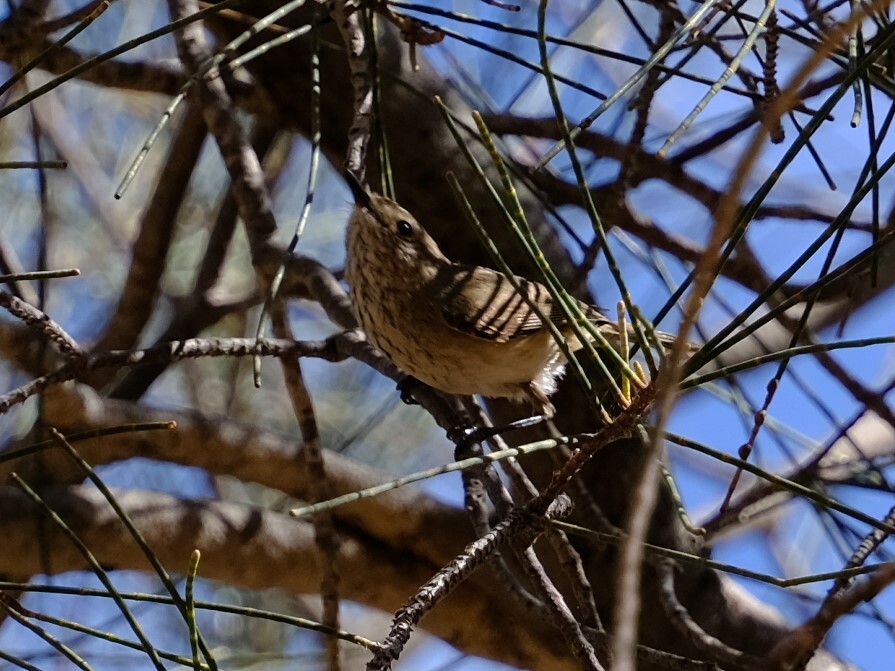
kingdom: Animalia
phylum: Chordata
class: Aves
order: Passeriformes
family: Acanthizidae
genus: Acanthiza
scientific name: Acanthiza apicalis
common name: Inland thornbill
